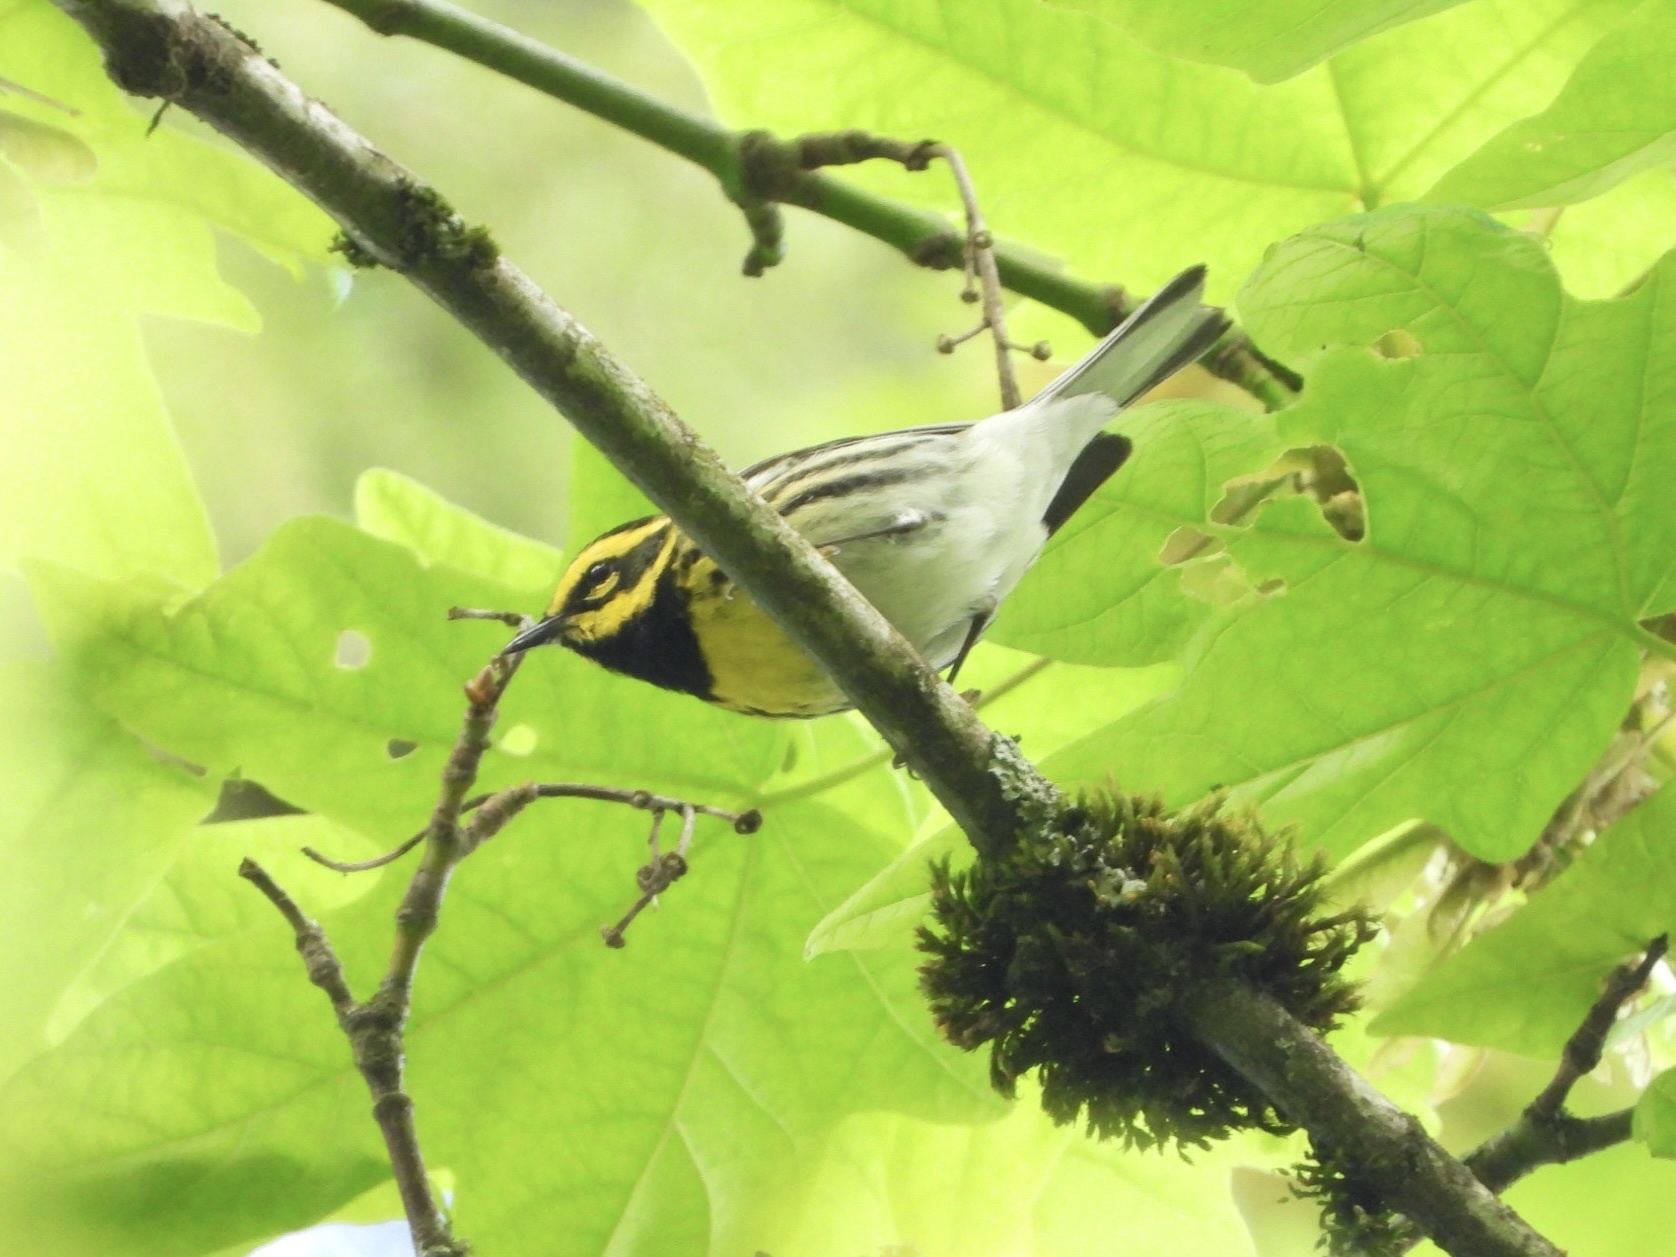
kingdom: Animalia
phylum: Chordata
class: Aves
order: Passeriformes
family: Parulidae
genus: Setophaga
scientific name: Setophaga townsendi
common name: Townsend's warbler
